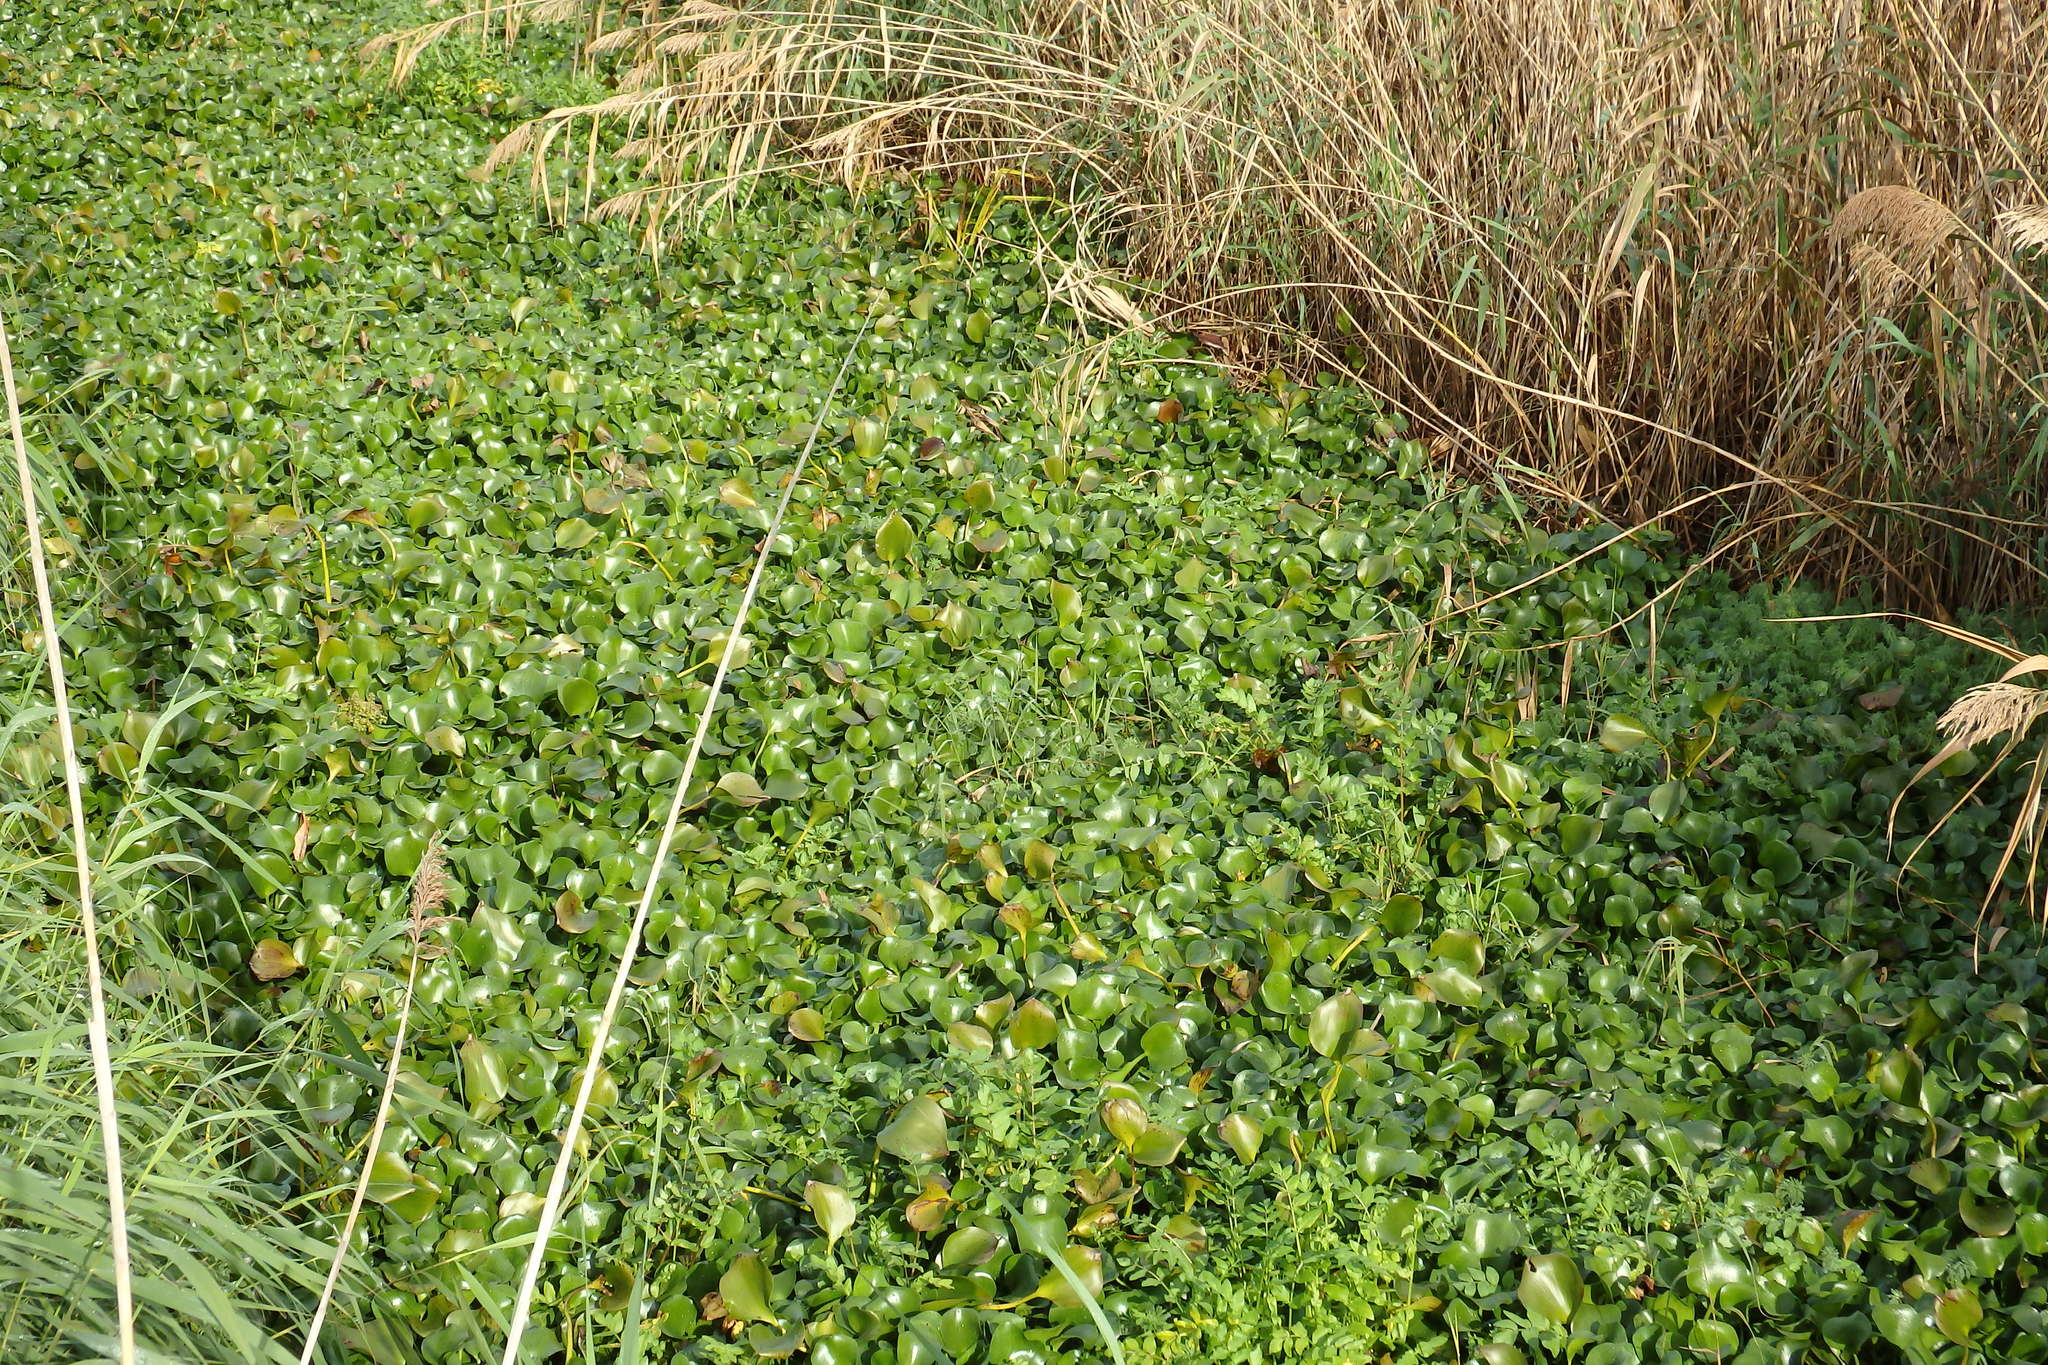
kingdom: Plantae
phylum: Tracheophyta
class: Liliopsida
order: Commelinales
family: Pontederiaceae
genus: Pontederia
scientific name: Pontederia crassipes
